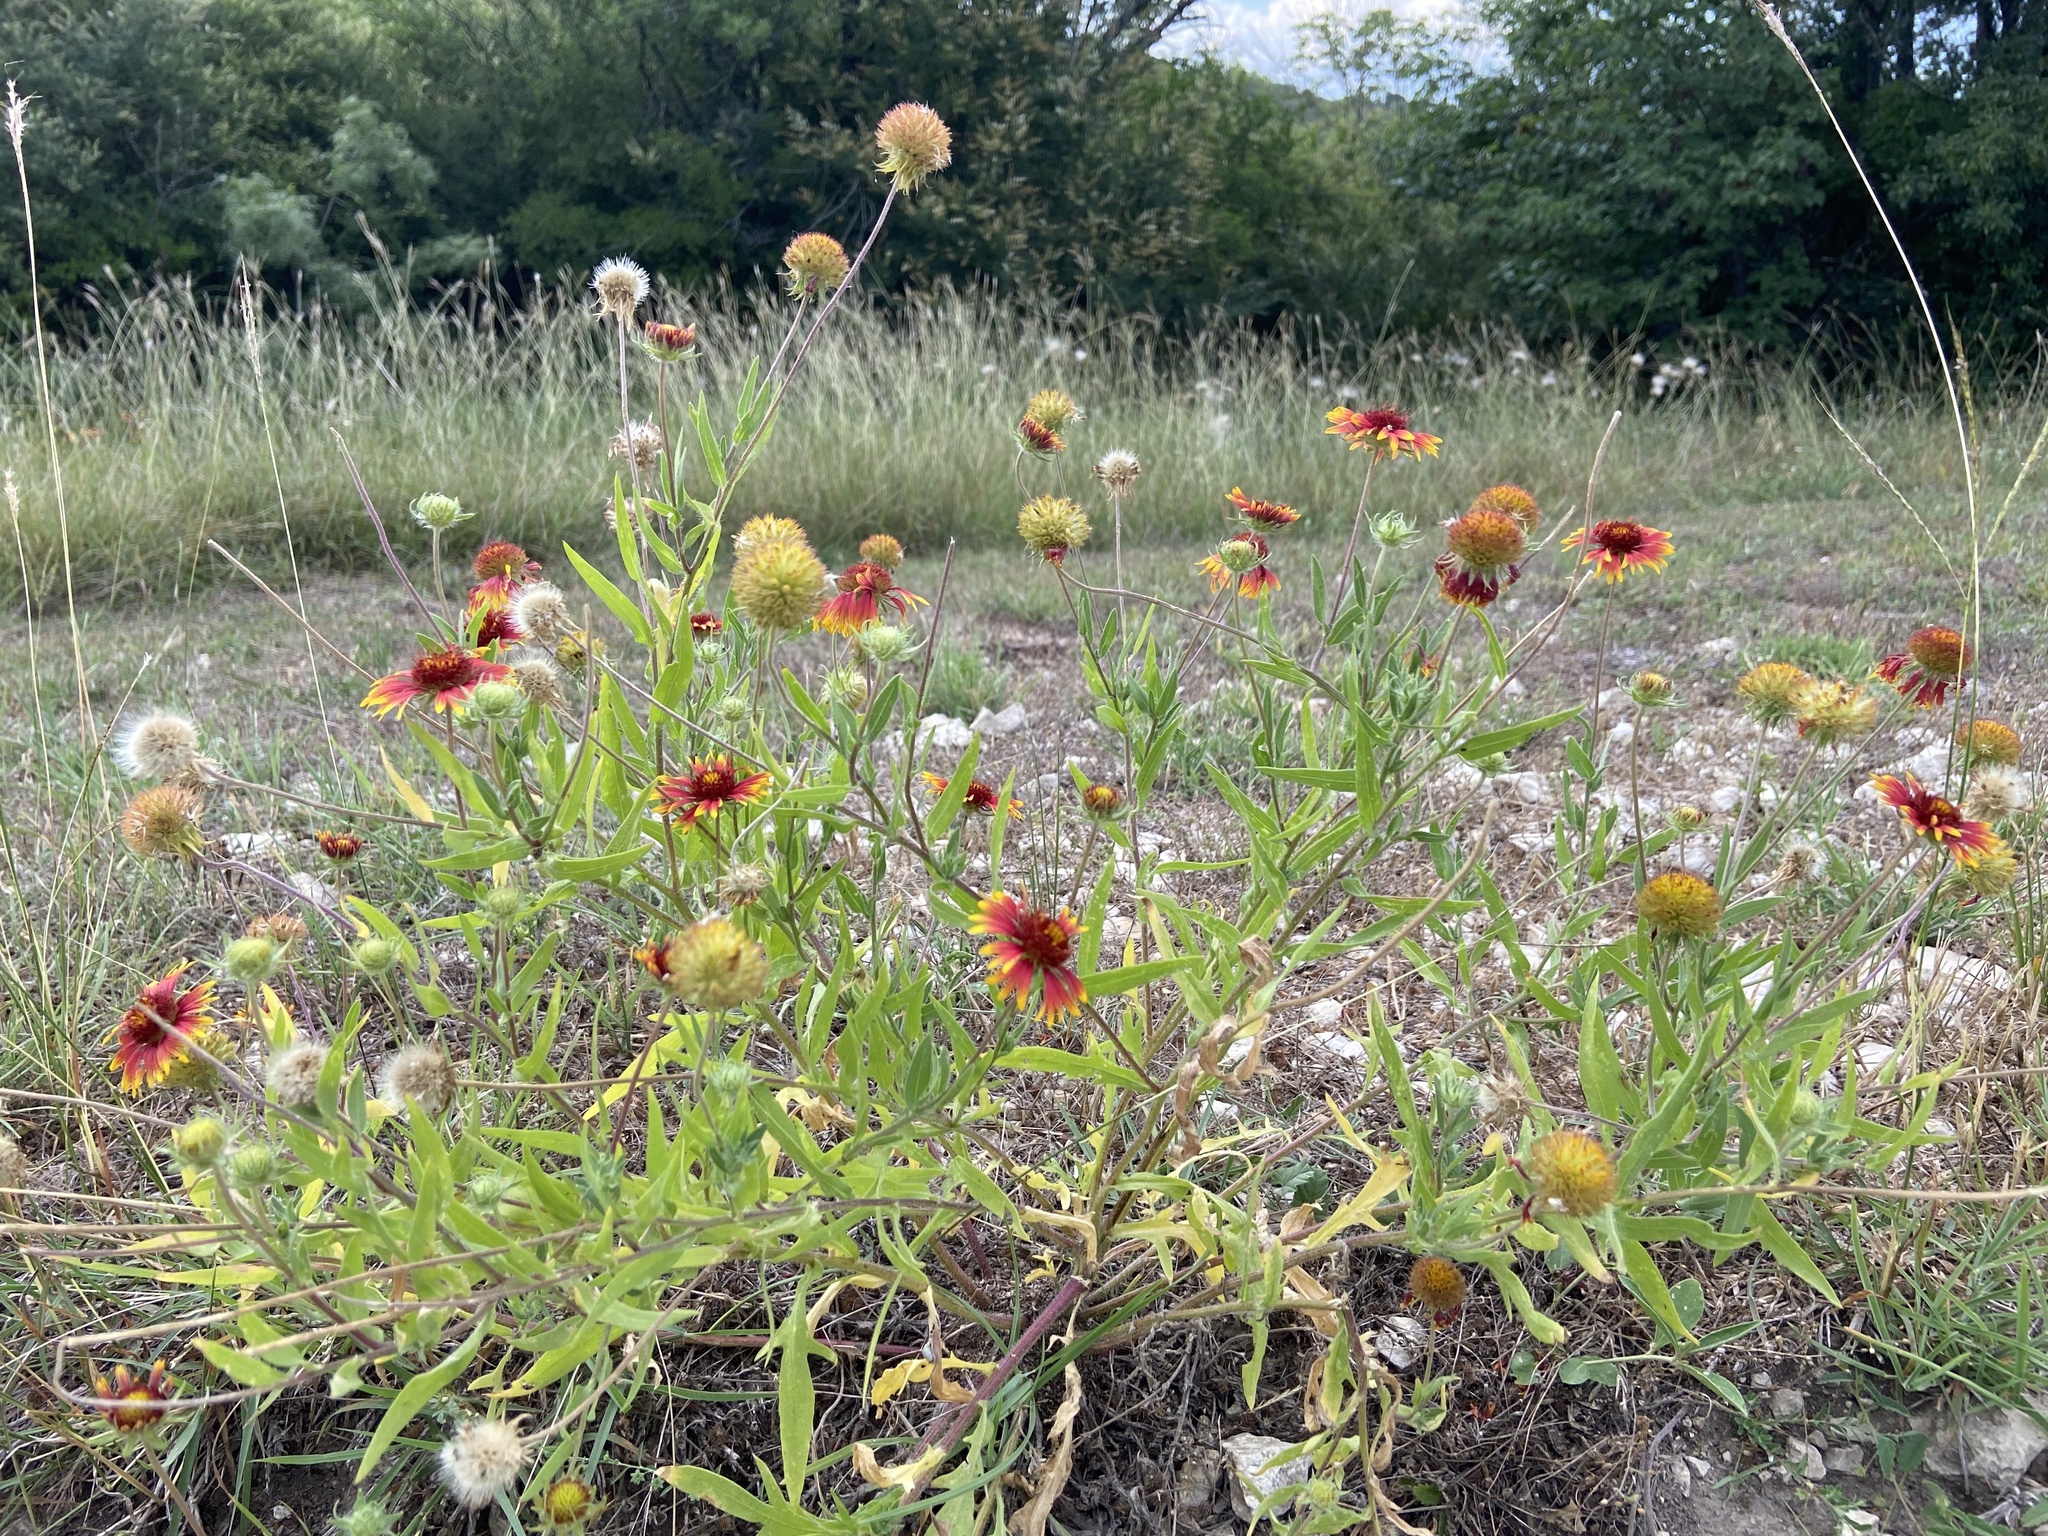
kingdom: Plantae
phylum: Tracheophyta
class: Magnoliopsida
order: Asterales
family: Asteraceae
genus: Gaillardia
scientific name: Gaillardia pulchella
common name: Firewheel
